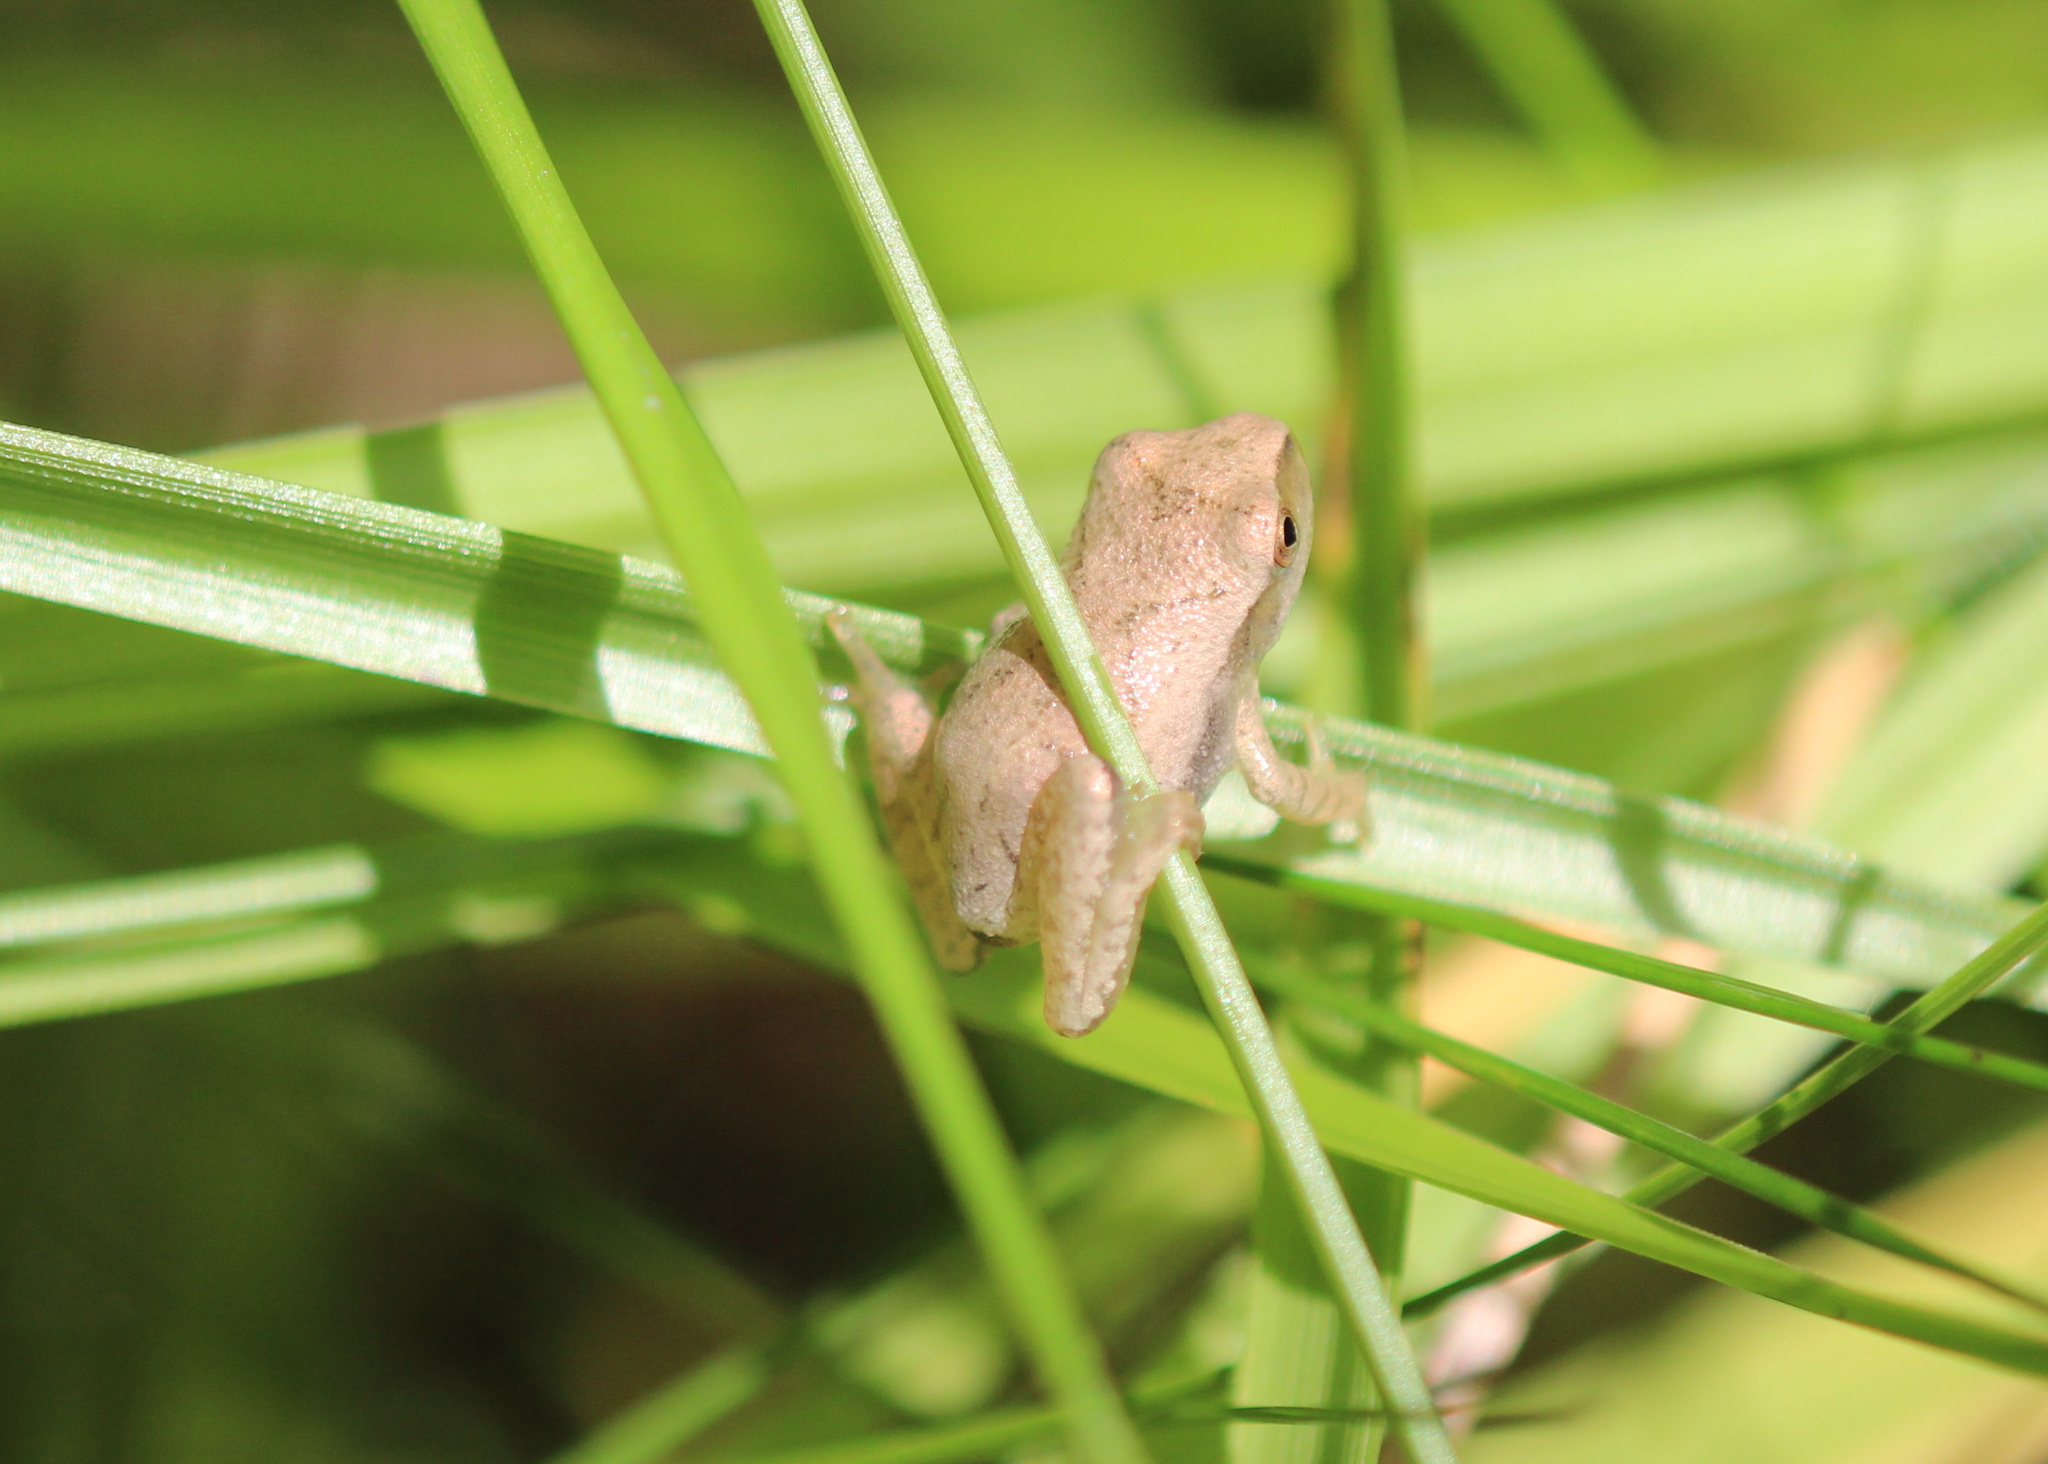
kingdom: Animalia
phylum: Chordata
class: Amphibia
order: Anura
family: Hylidae
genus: Pseudacris
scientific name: Pseudacris crucifer
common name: Spring peeper
